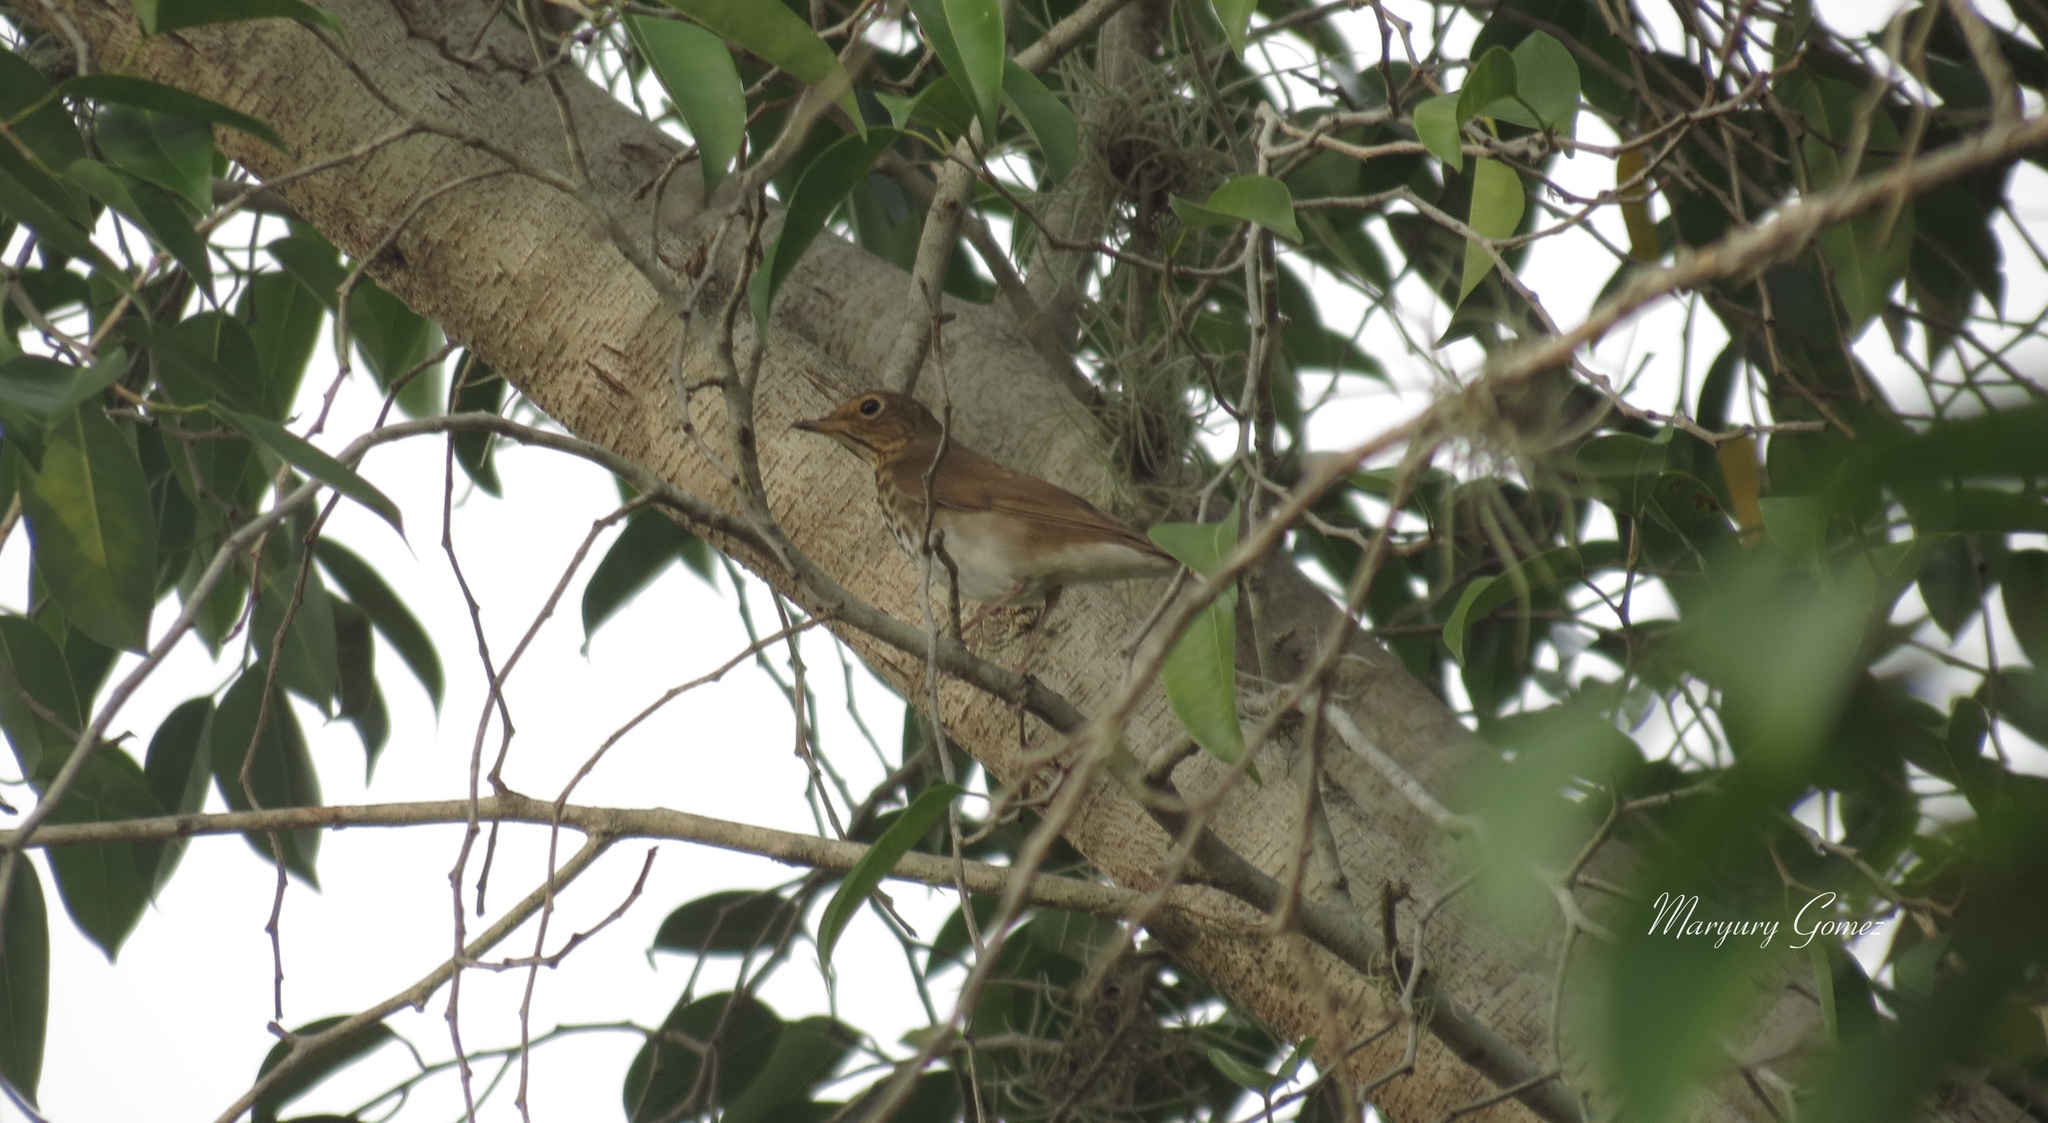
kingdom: Animalia
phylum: Chordata
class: Aves
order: Passeriformes
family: Turdidae
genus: Catharus
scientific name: Catharus ustulatus
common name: Swainson's thrush
